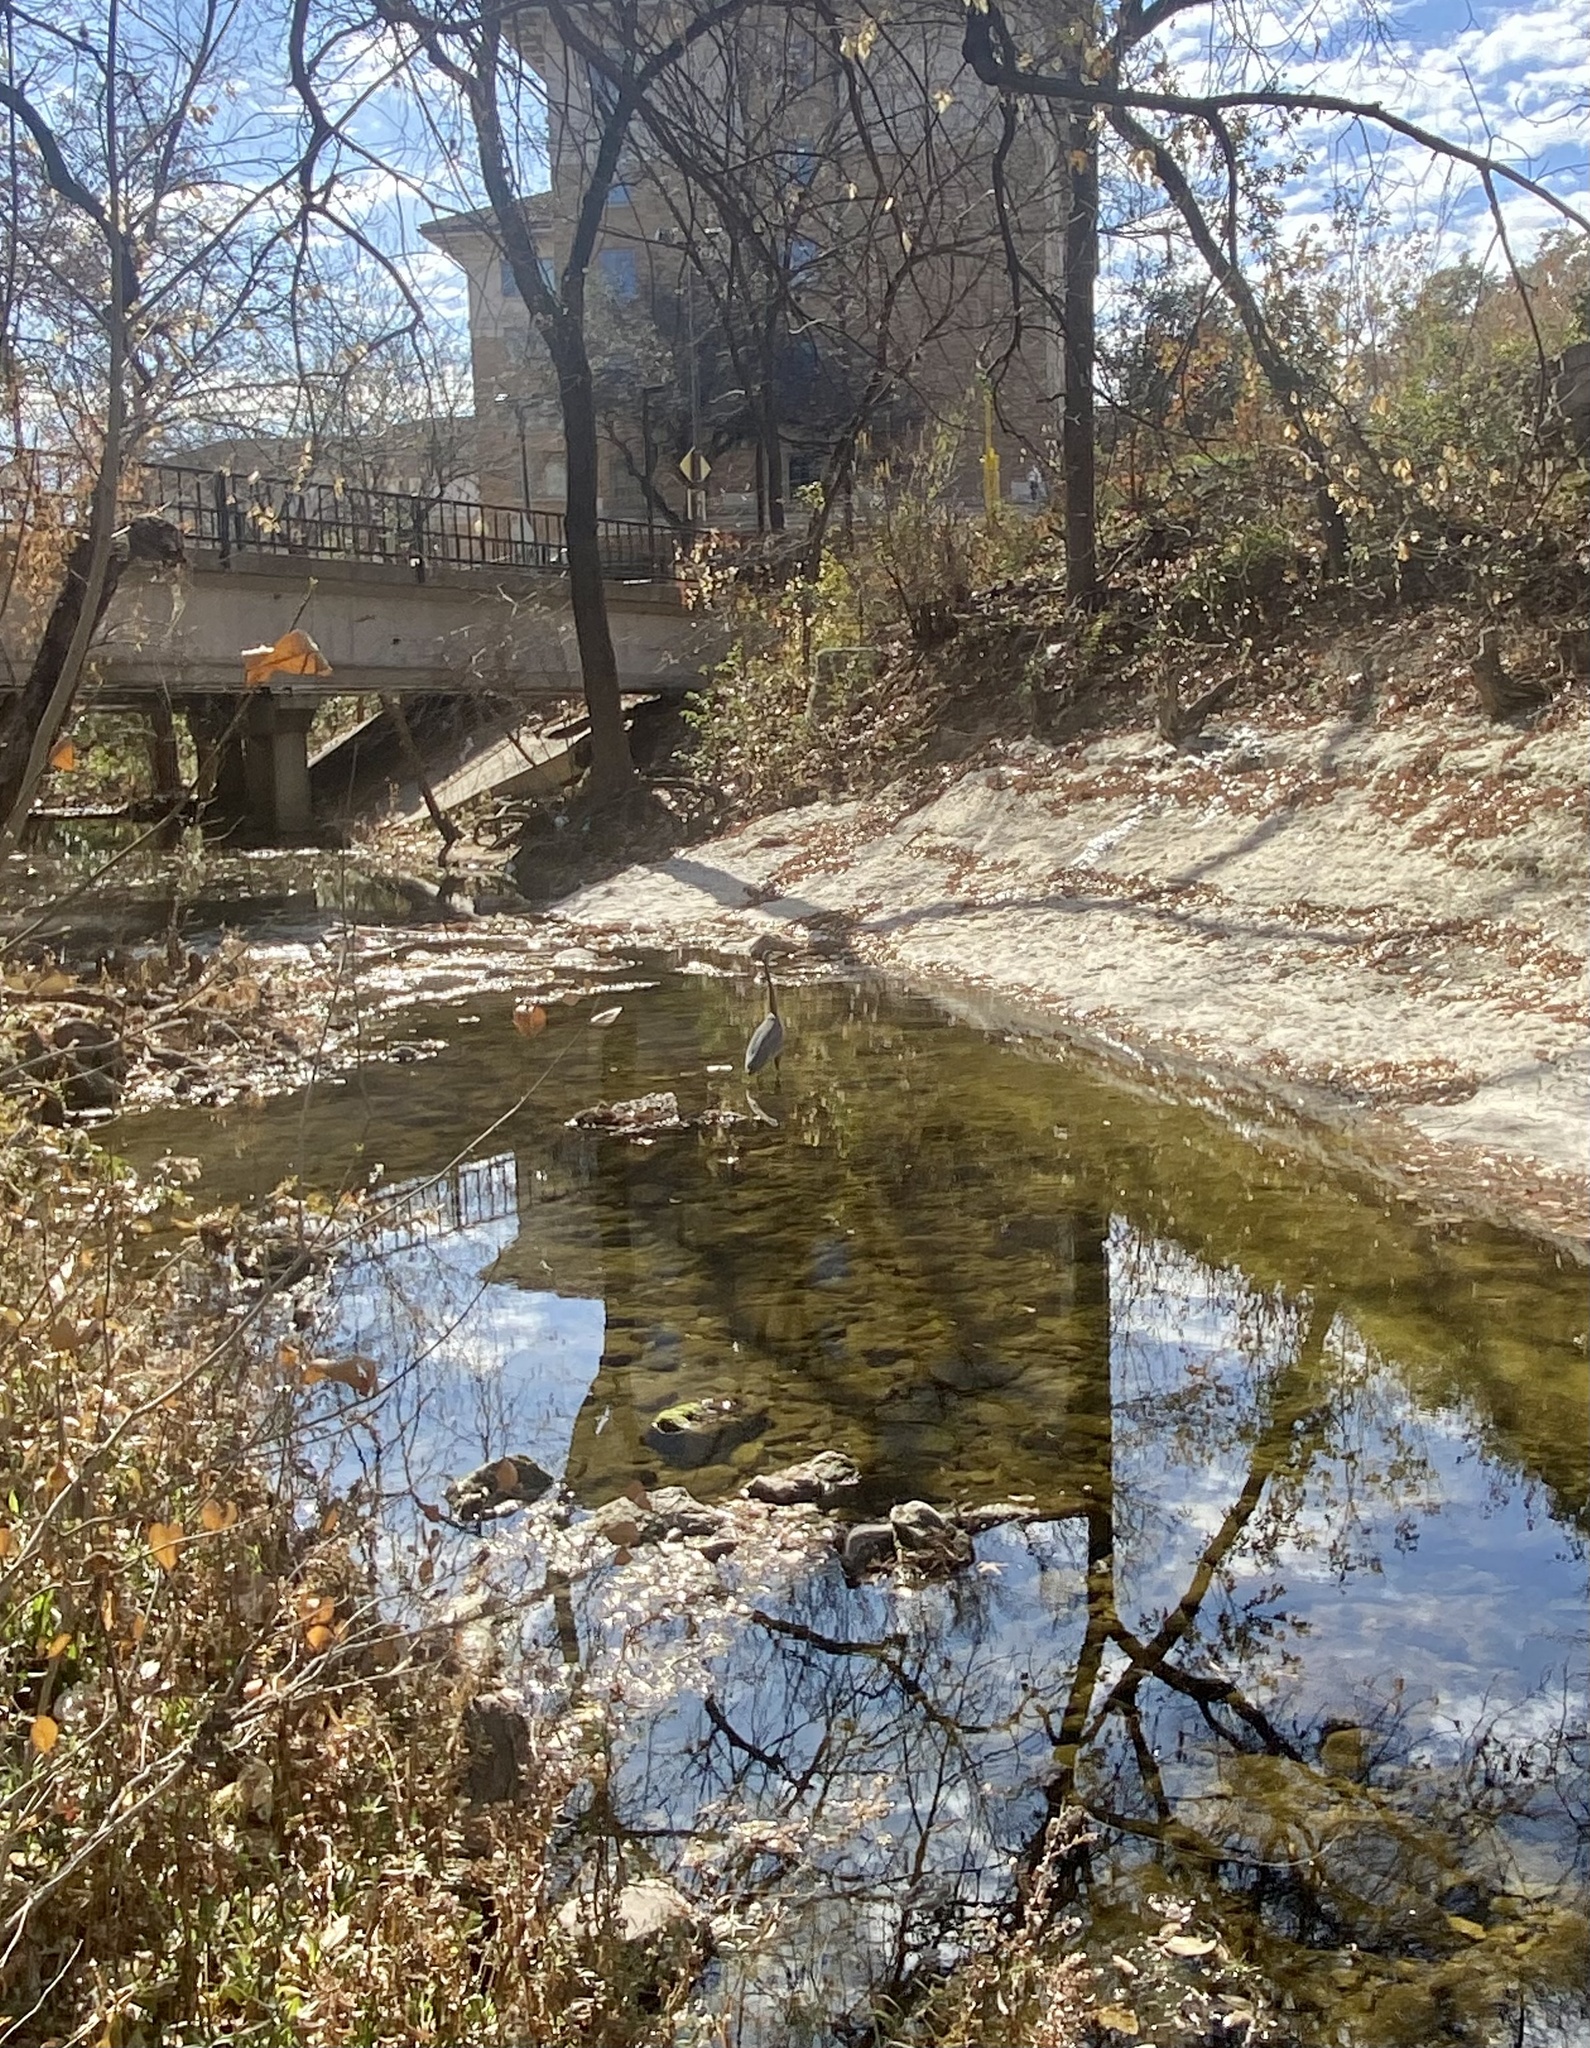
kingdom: Animalia
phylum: Chordata
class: Aves
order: Pelecaniformes
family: Ardeidae
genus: Ardea
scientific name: Ardea herodias
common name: Great blue heron
